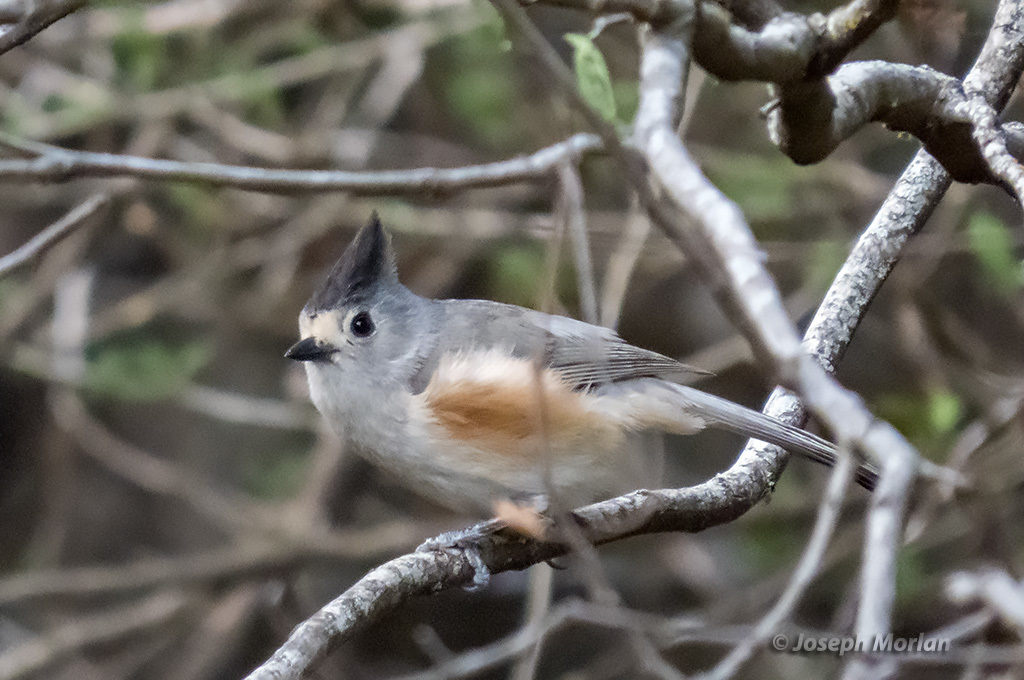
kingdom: Animalia
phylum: Chordata
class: Aves
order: Passeriformes
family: Paridae
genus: Baeolophus
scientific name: Baeolophus atricristatus
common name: Black-crested titmouse
